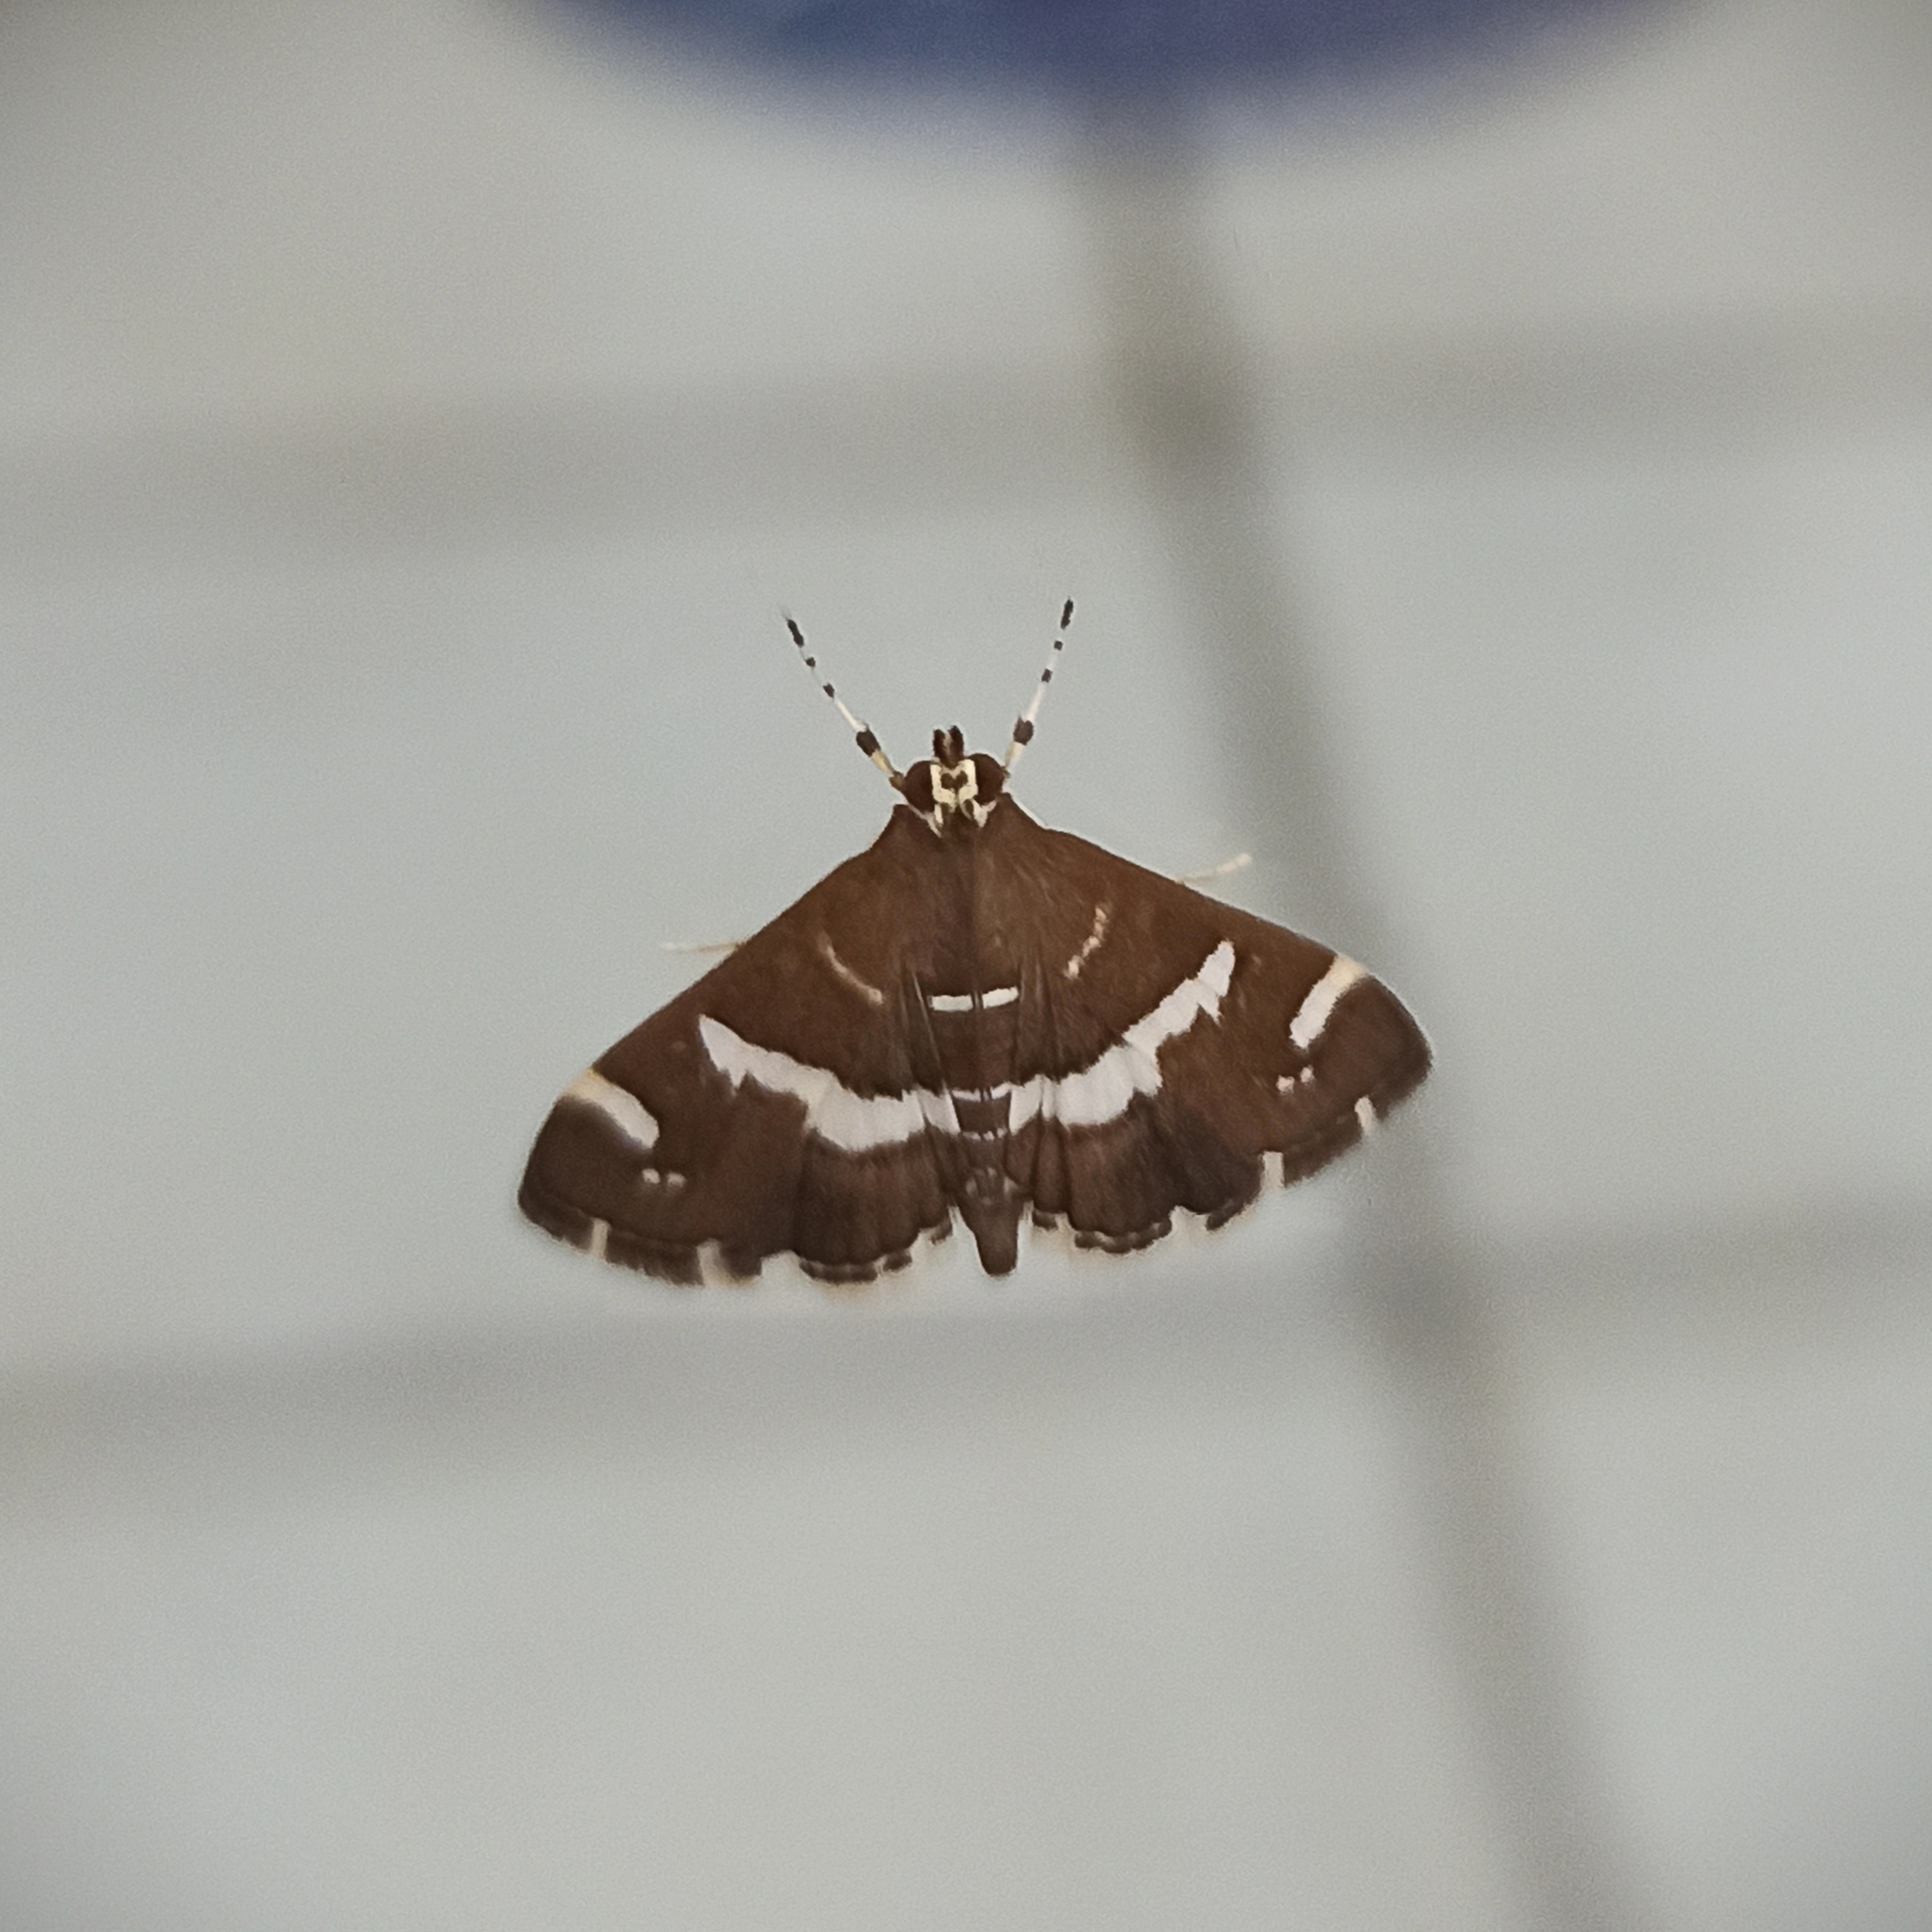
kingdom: Animalia
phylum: Arthropoda
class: Insecta
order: Lepidoptera
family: Crambidae
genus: Spoladea
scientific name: Spoladea recurvalis
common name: Beet webworm moth
